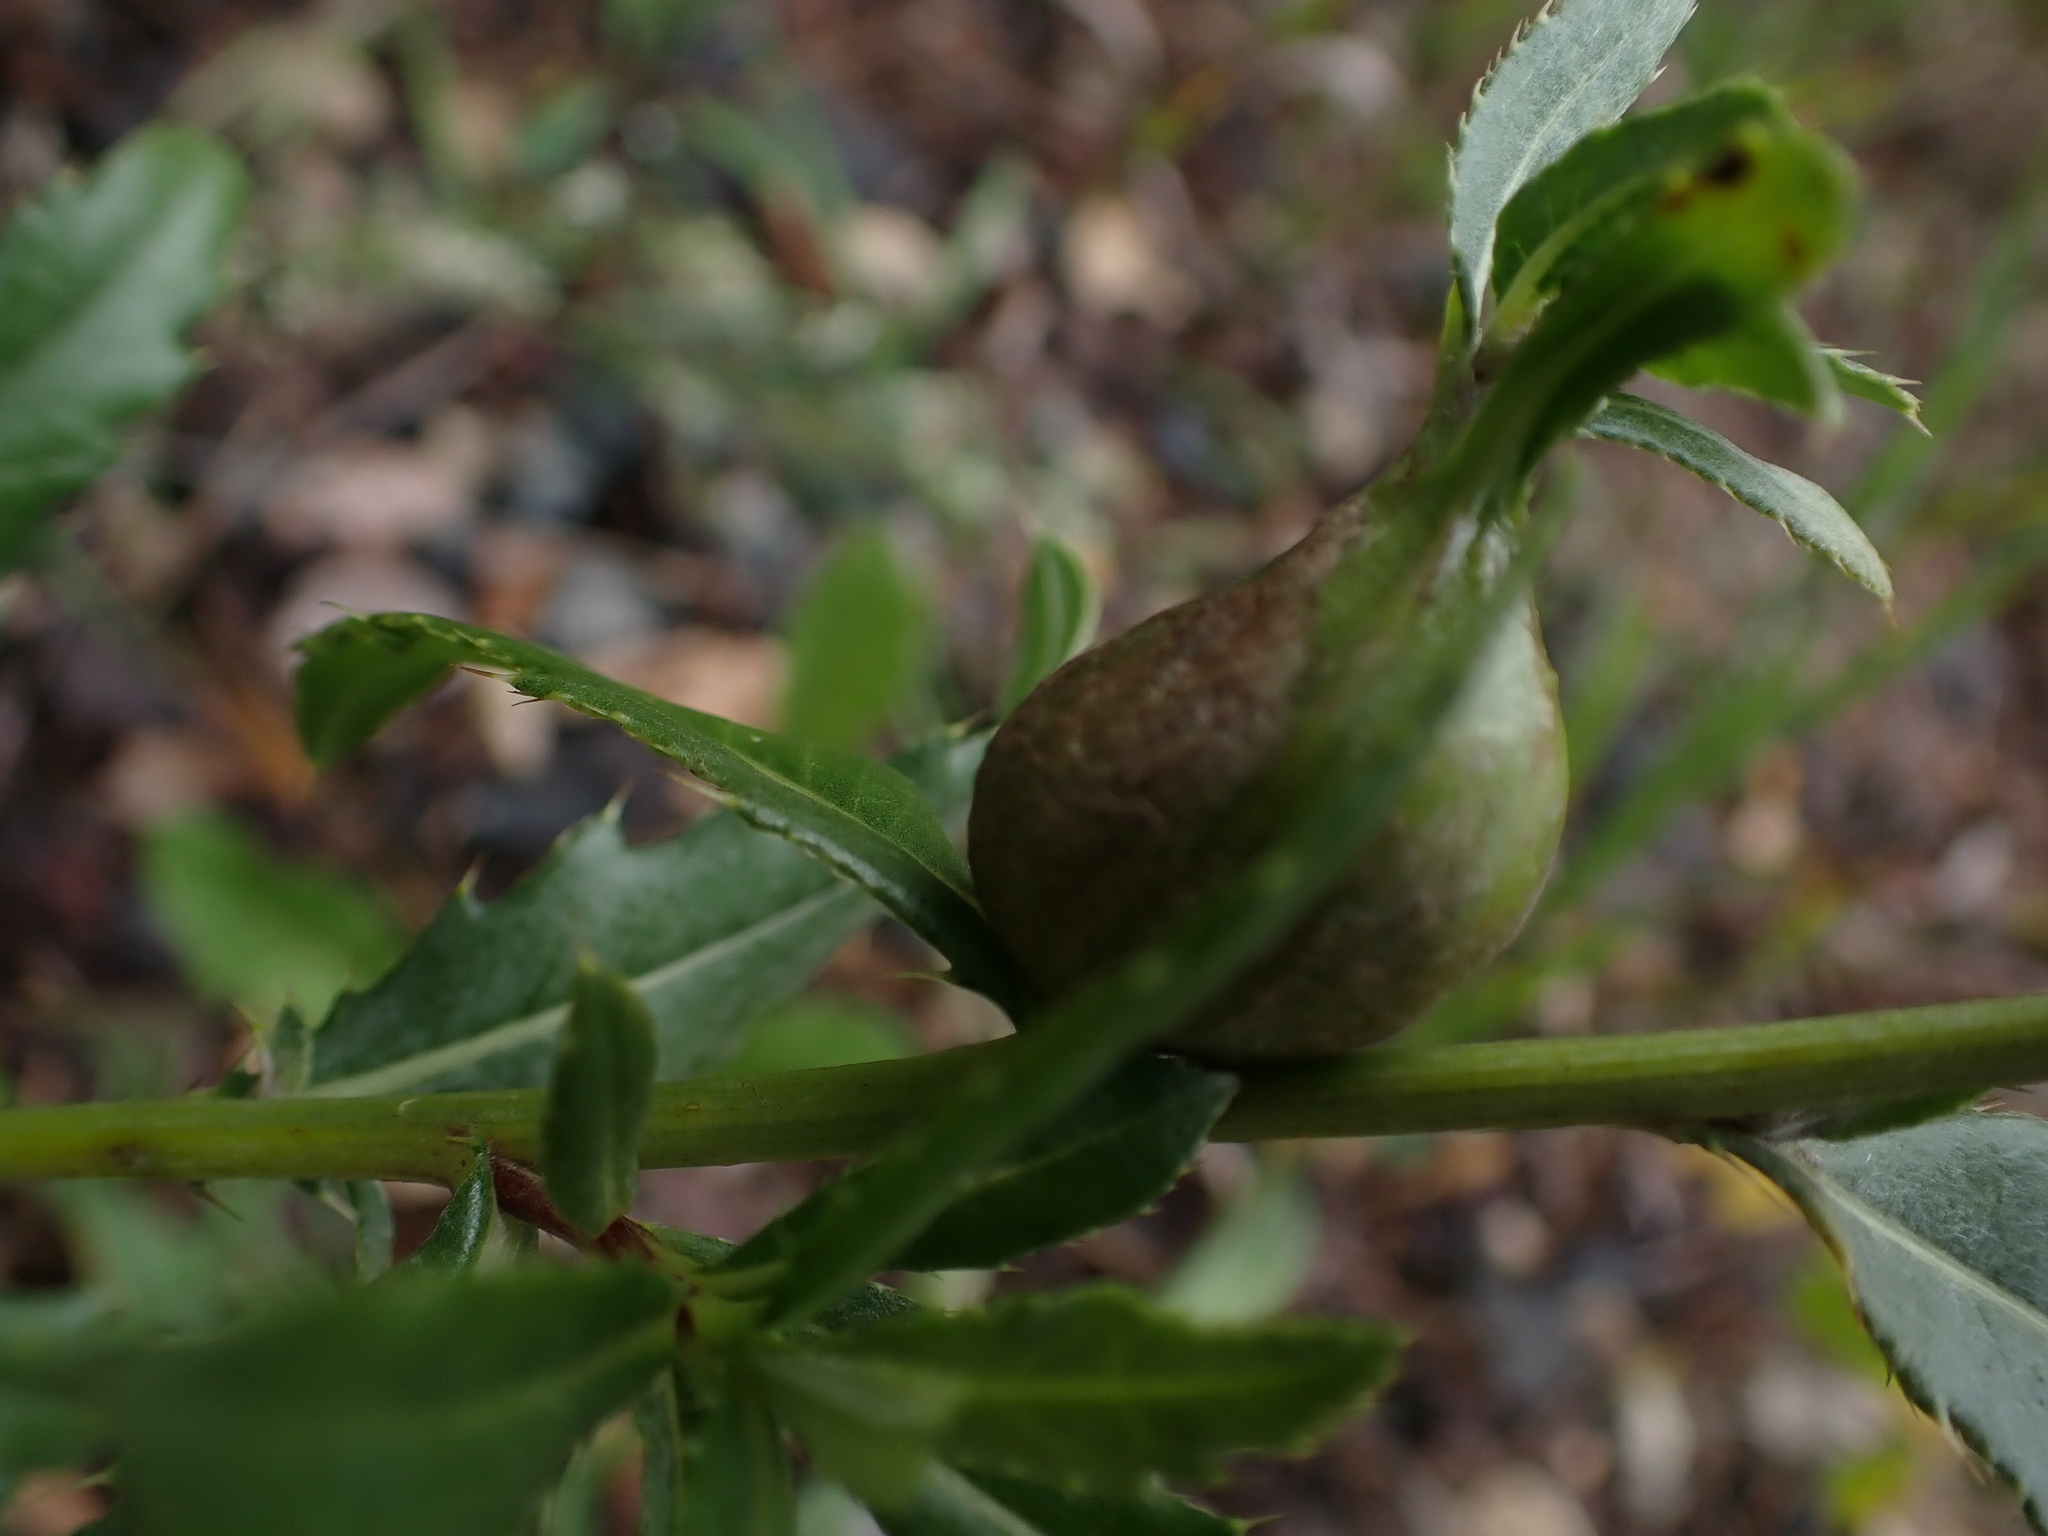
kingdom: Animalia
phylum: Arthropoda
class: Insecta
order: Diptera
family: Tephritidae
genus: Urophora
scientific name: Urophora cardui
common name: Fruit fly
